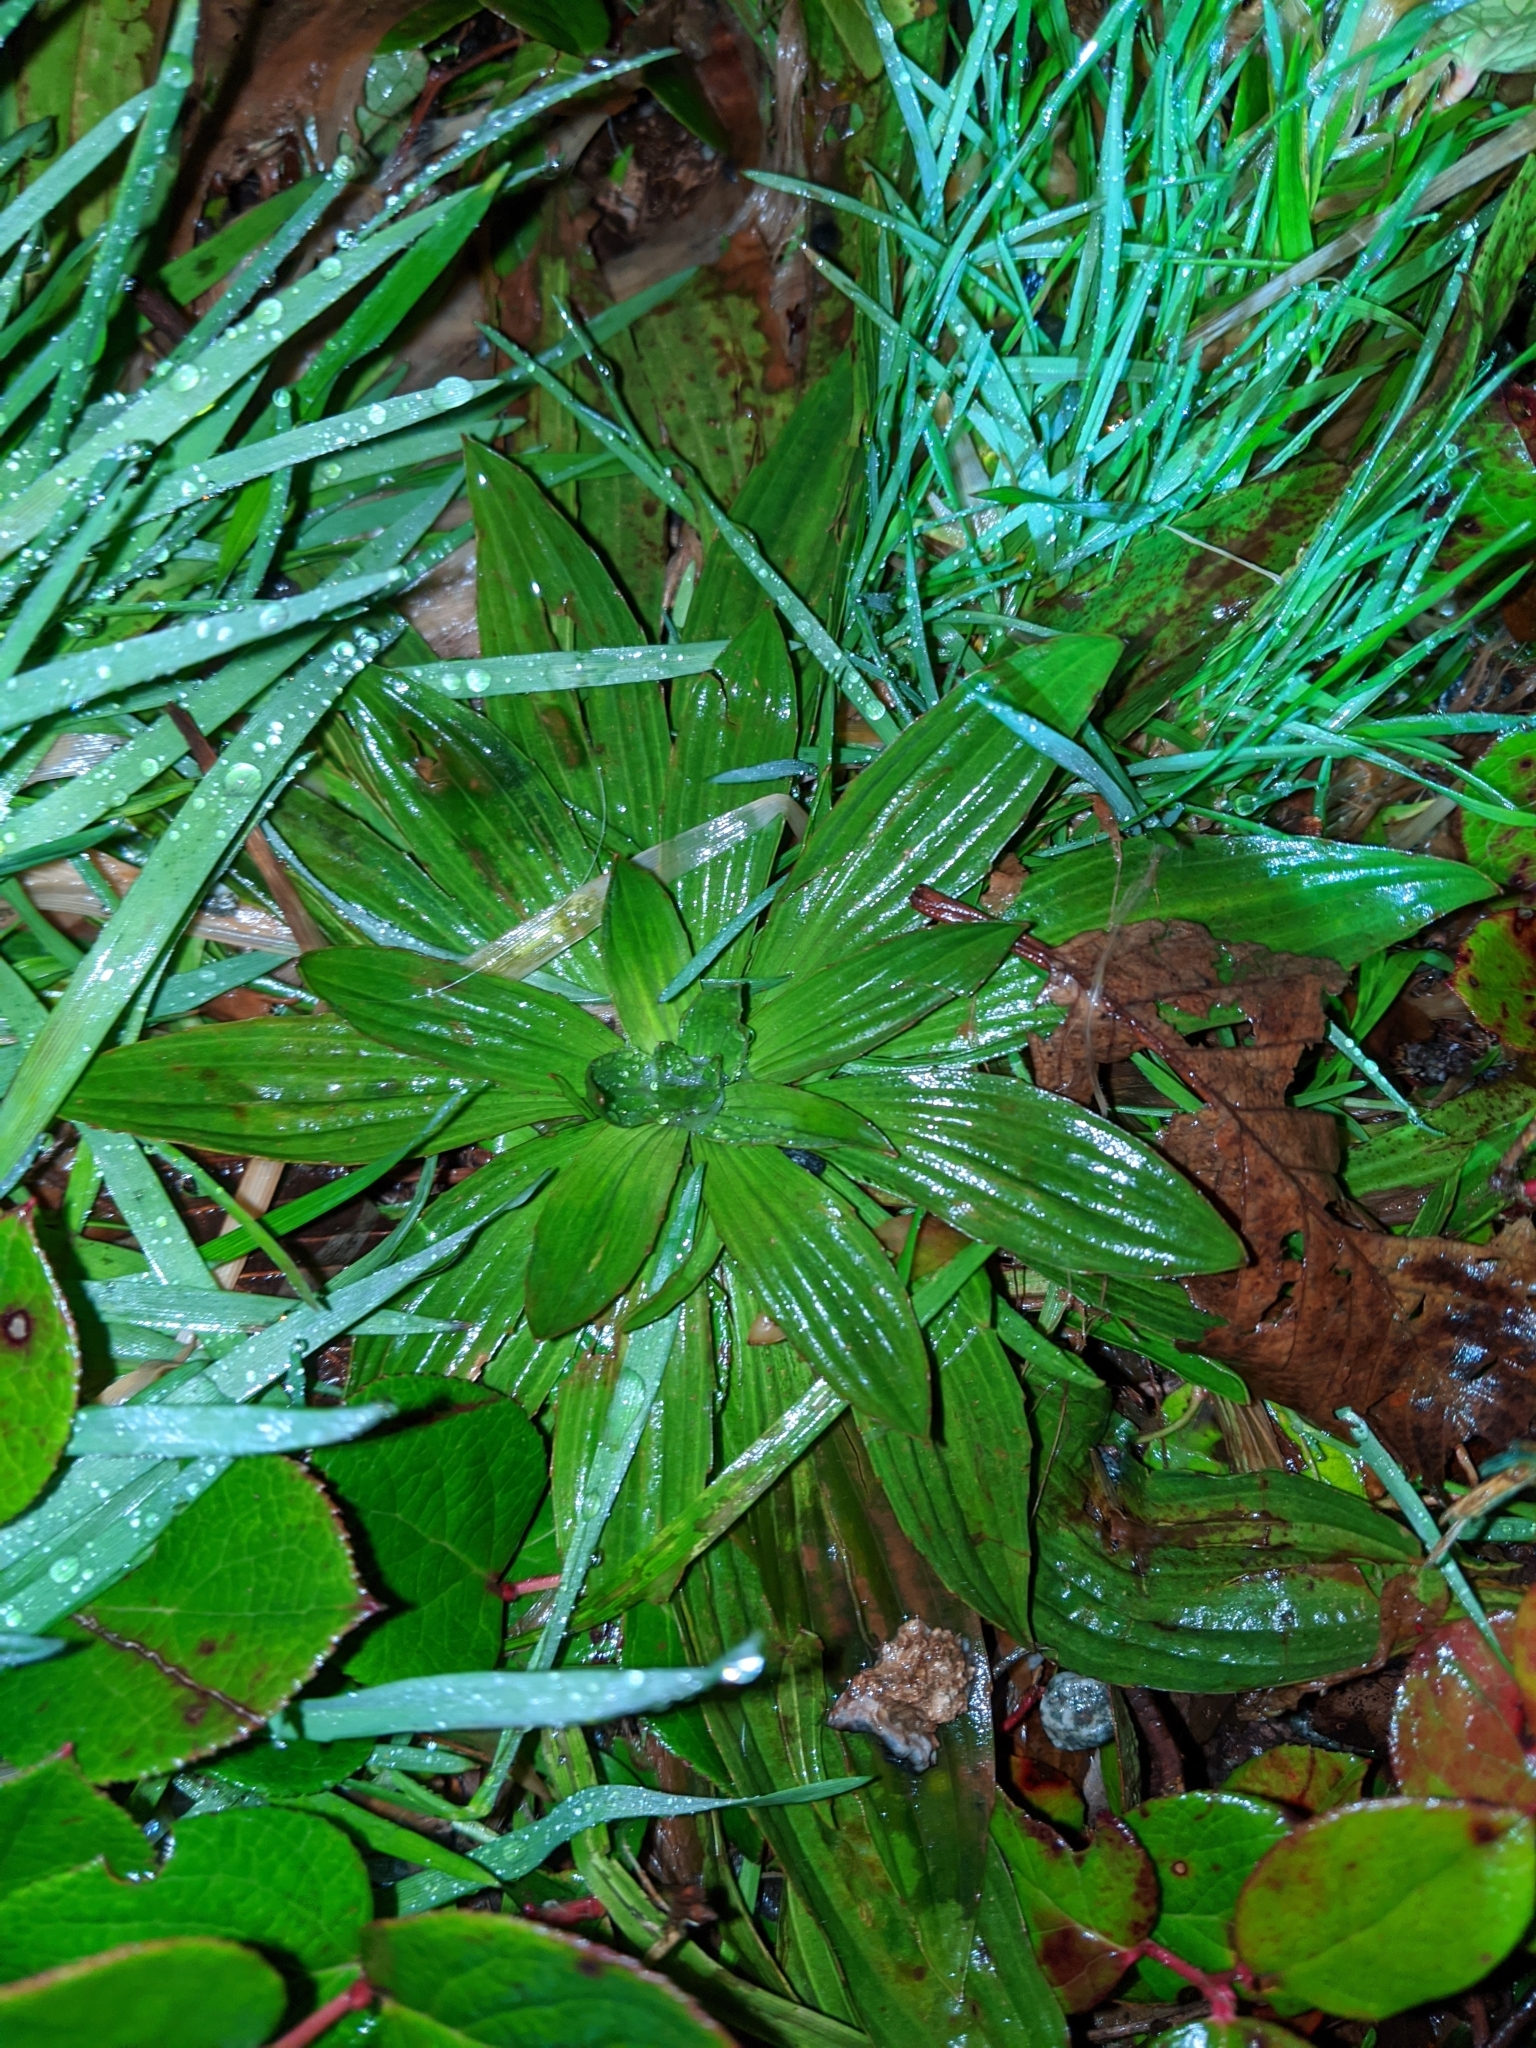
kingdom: Plantae
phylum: Tracheophyta
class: Magnoliopsida
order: Lamiales
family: Plantaginaceae
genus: Plantago
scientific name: Plantago lanceolata
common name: Ribwort plantain
